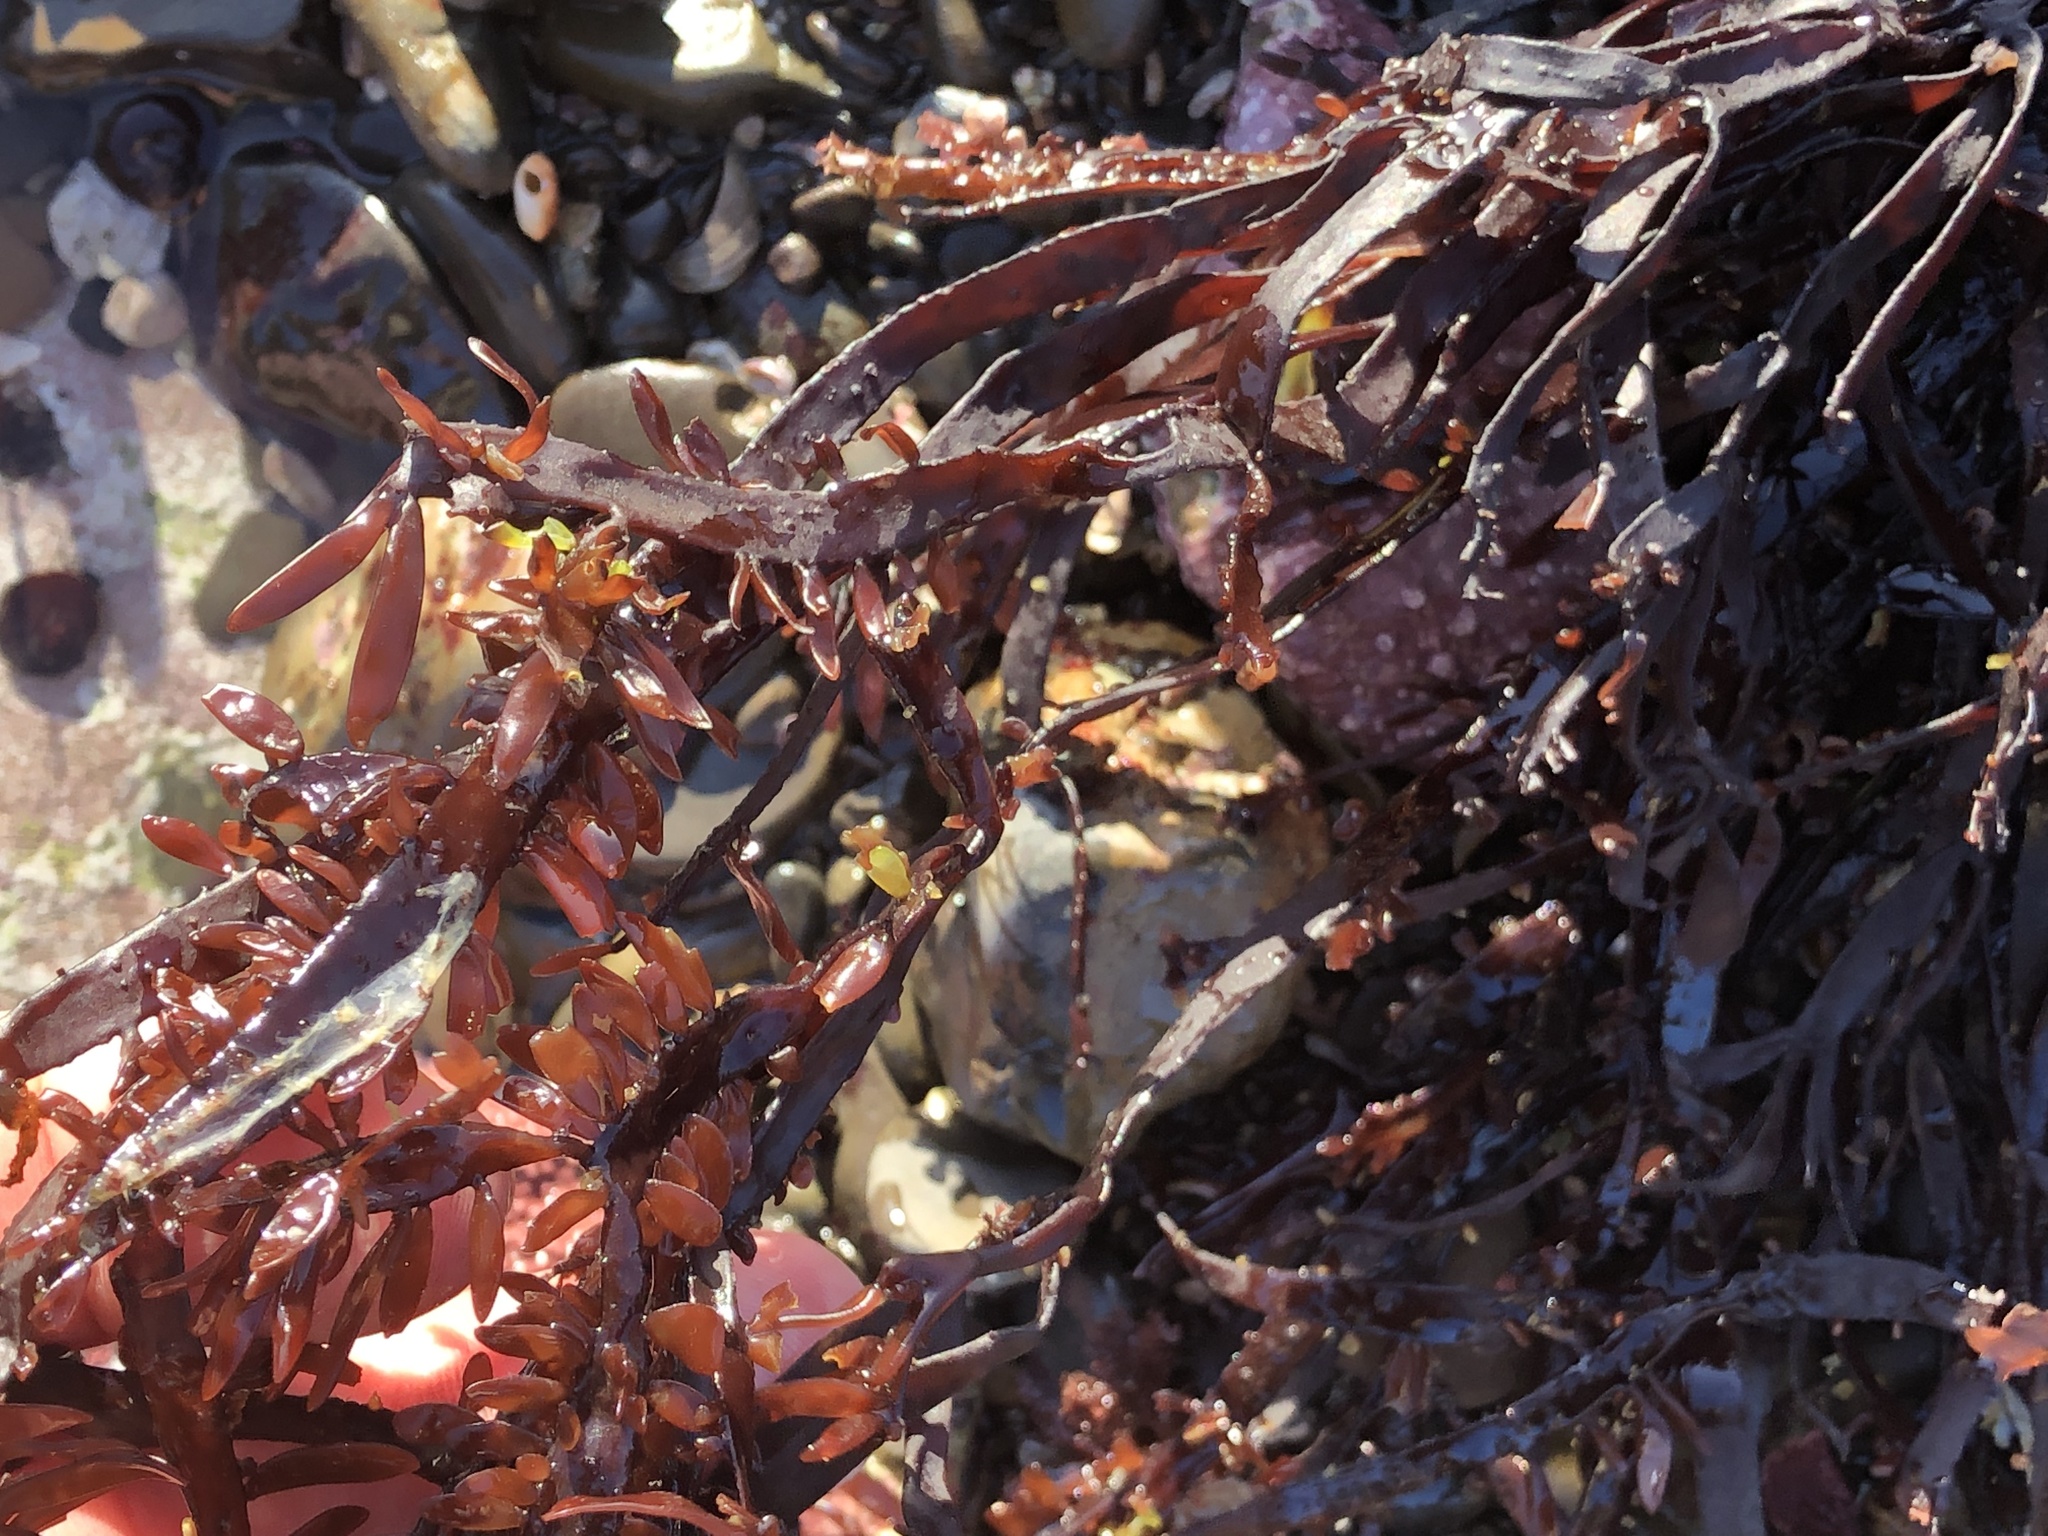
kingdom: Plantae
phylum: Rhodophyta
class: Florideophyceae
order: Halymeniales
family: Halymeniaceae
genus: Grateloupia
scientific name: Grateloupia Prionitis lanceolata
